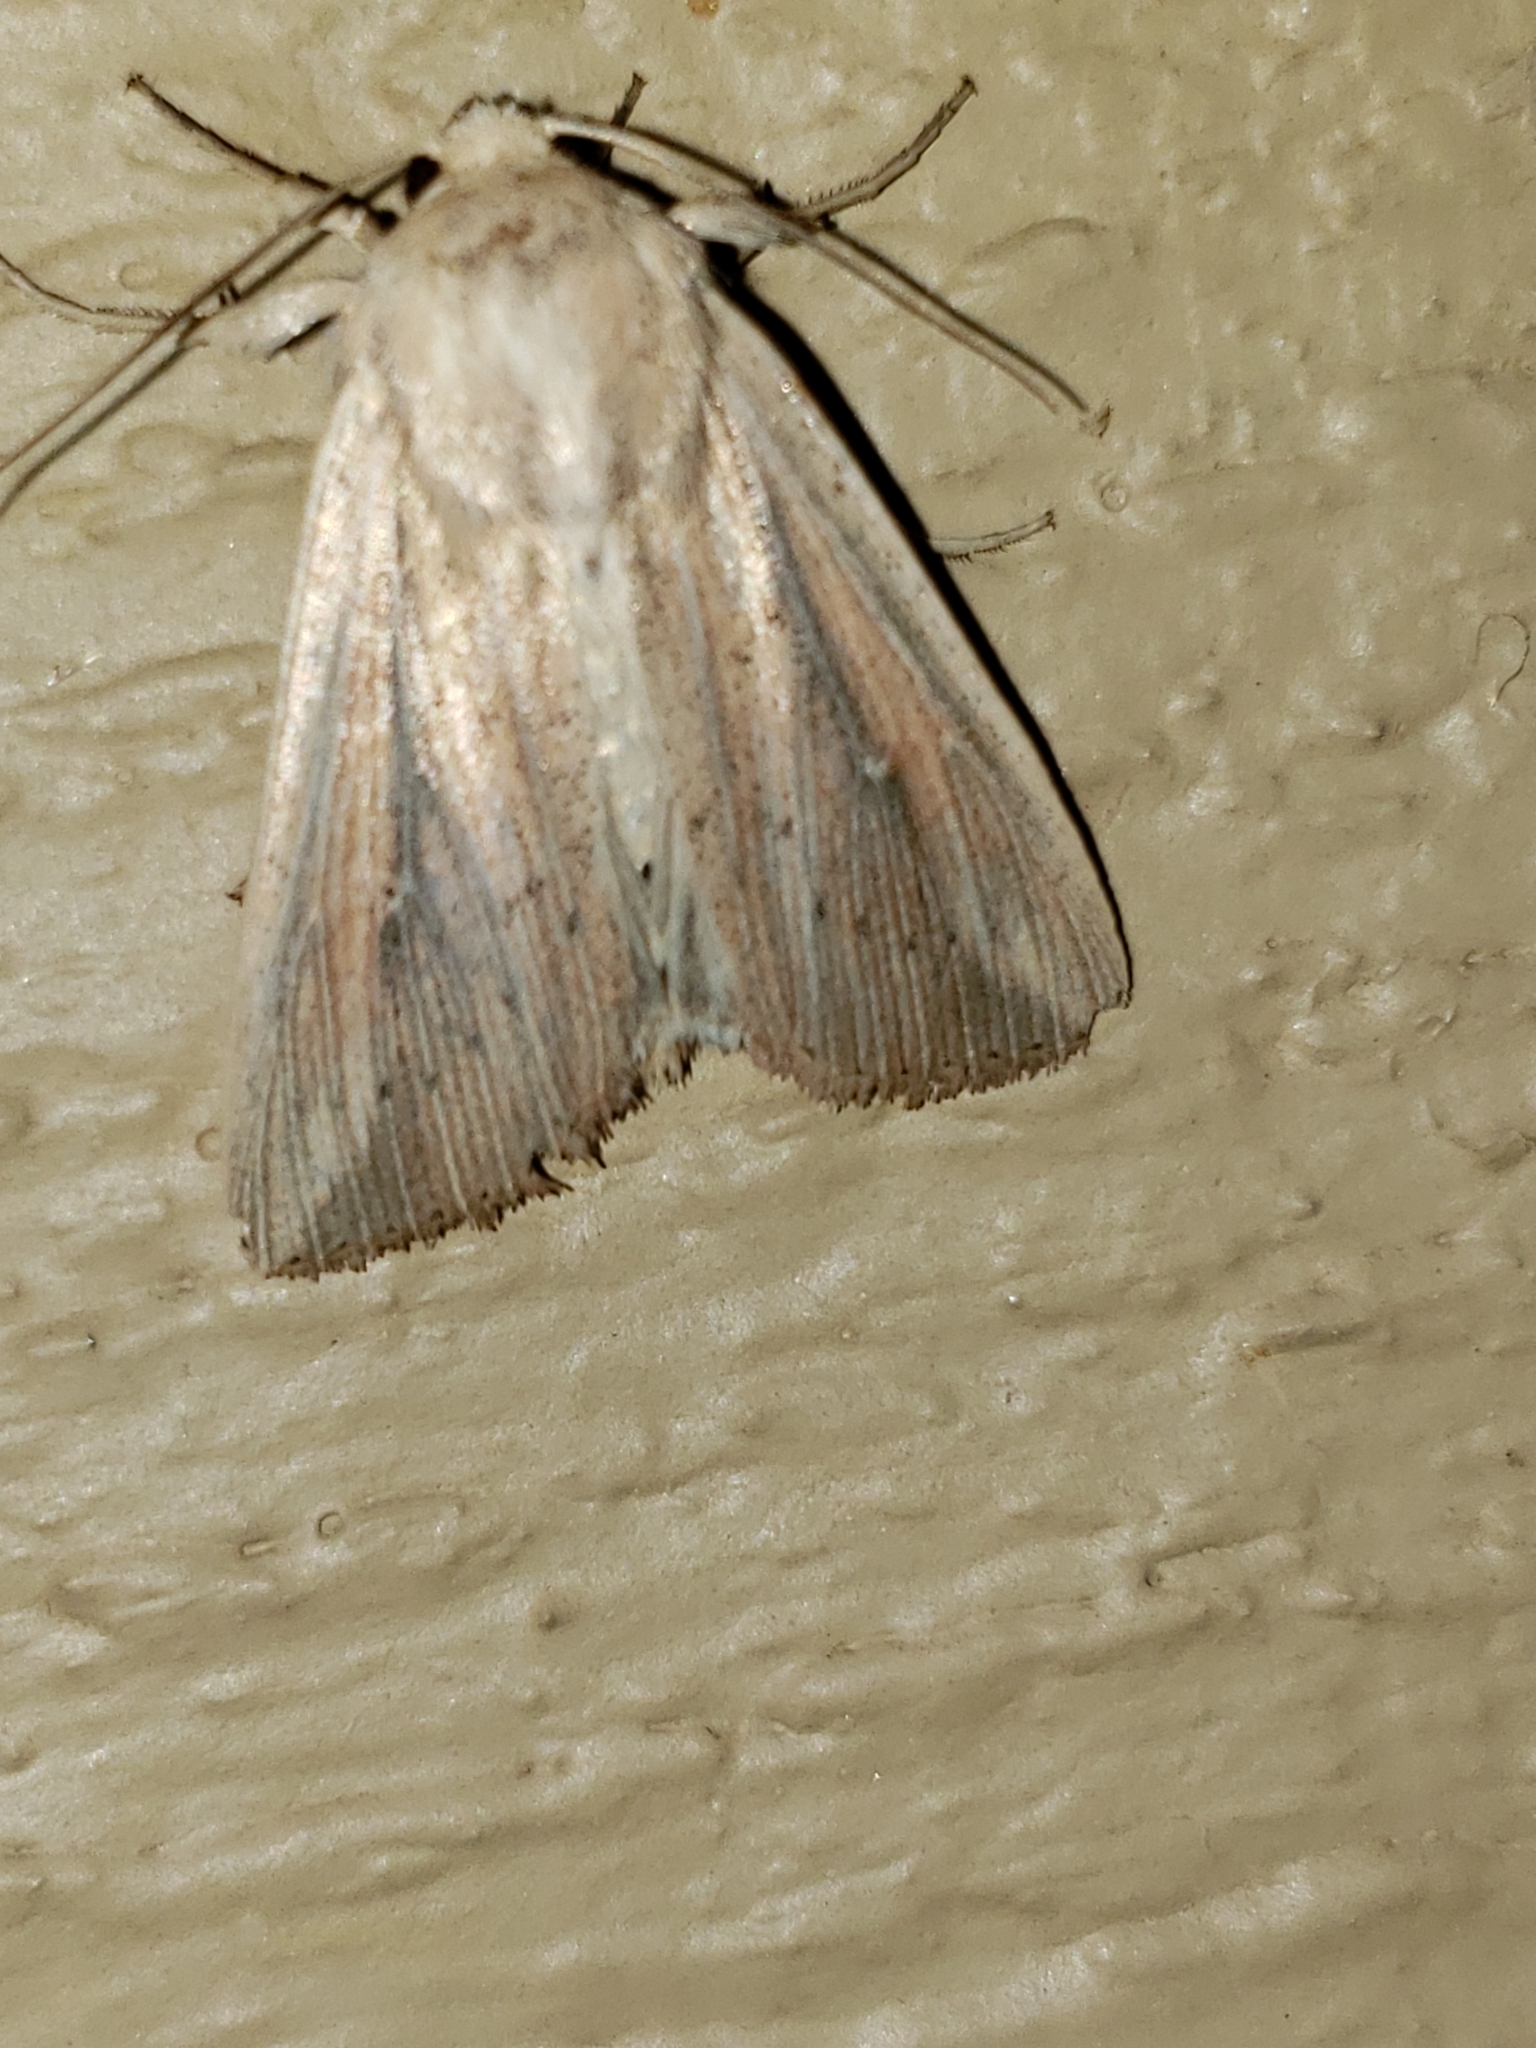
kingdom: Animalia
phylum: Arthropoda
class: Insecta
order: Lepidoptera
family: Noctuidae
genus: Leucania
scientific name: Leucania linda
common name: Linda's wainscot
